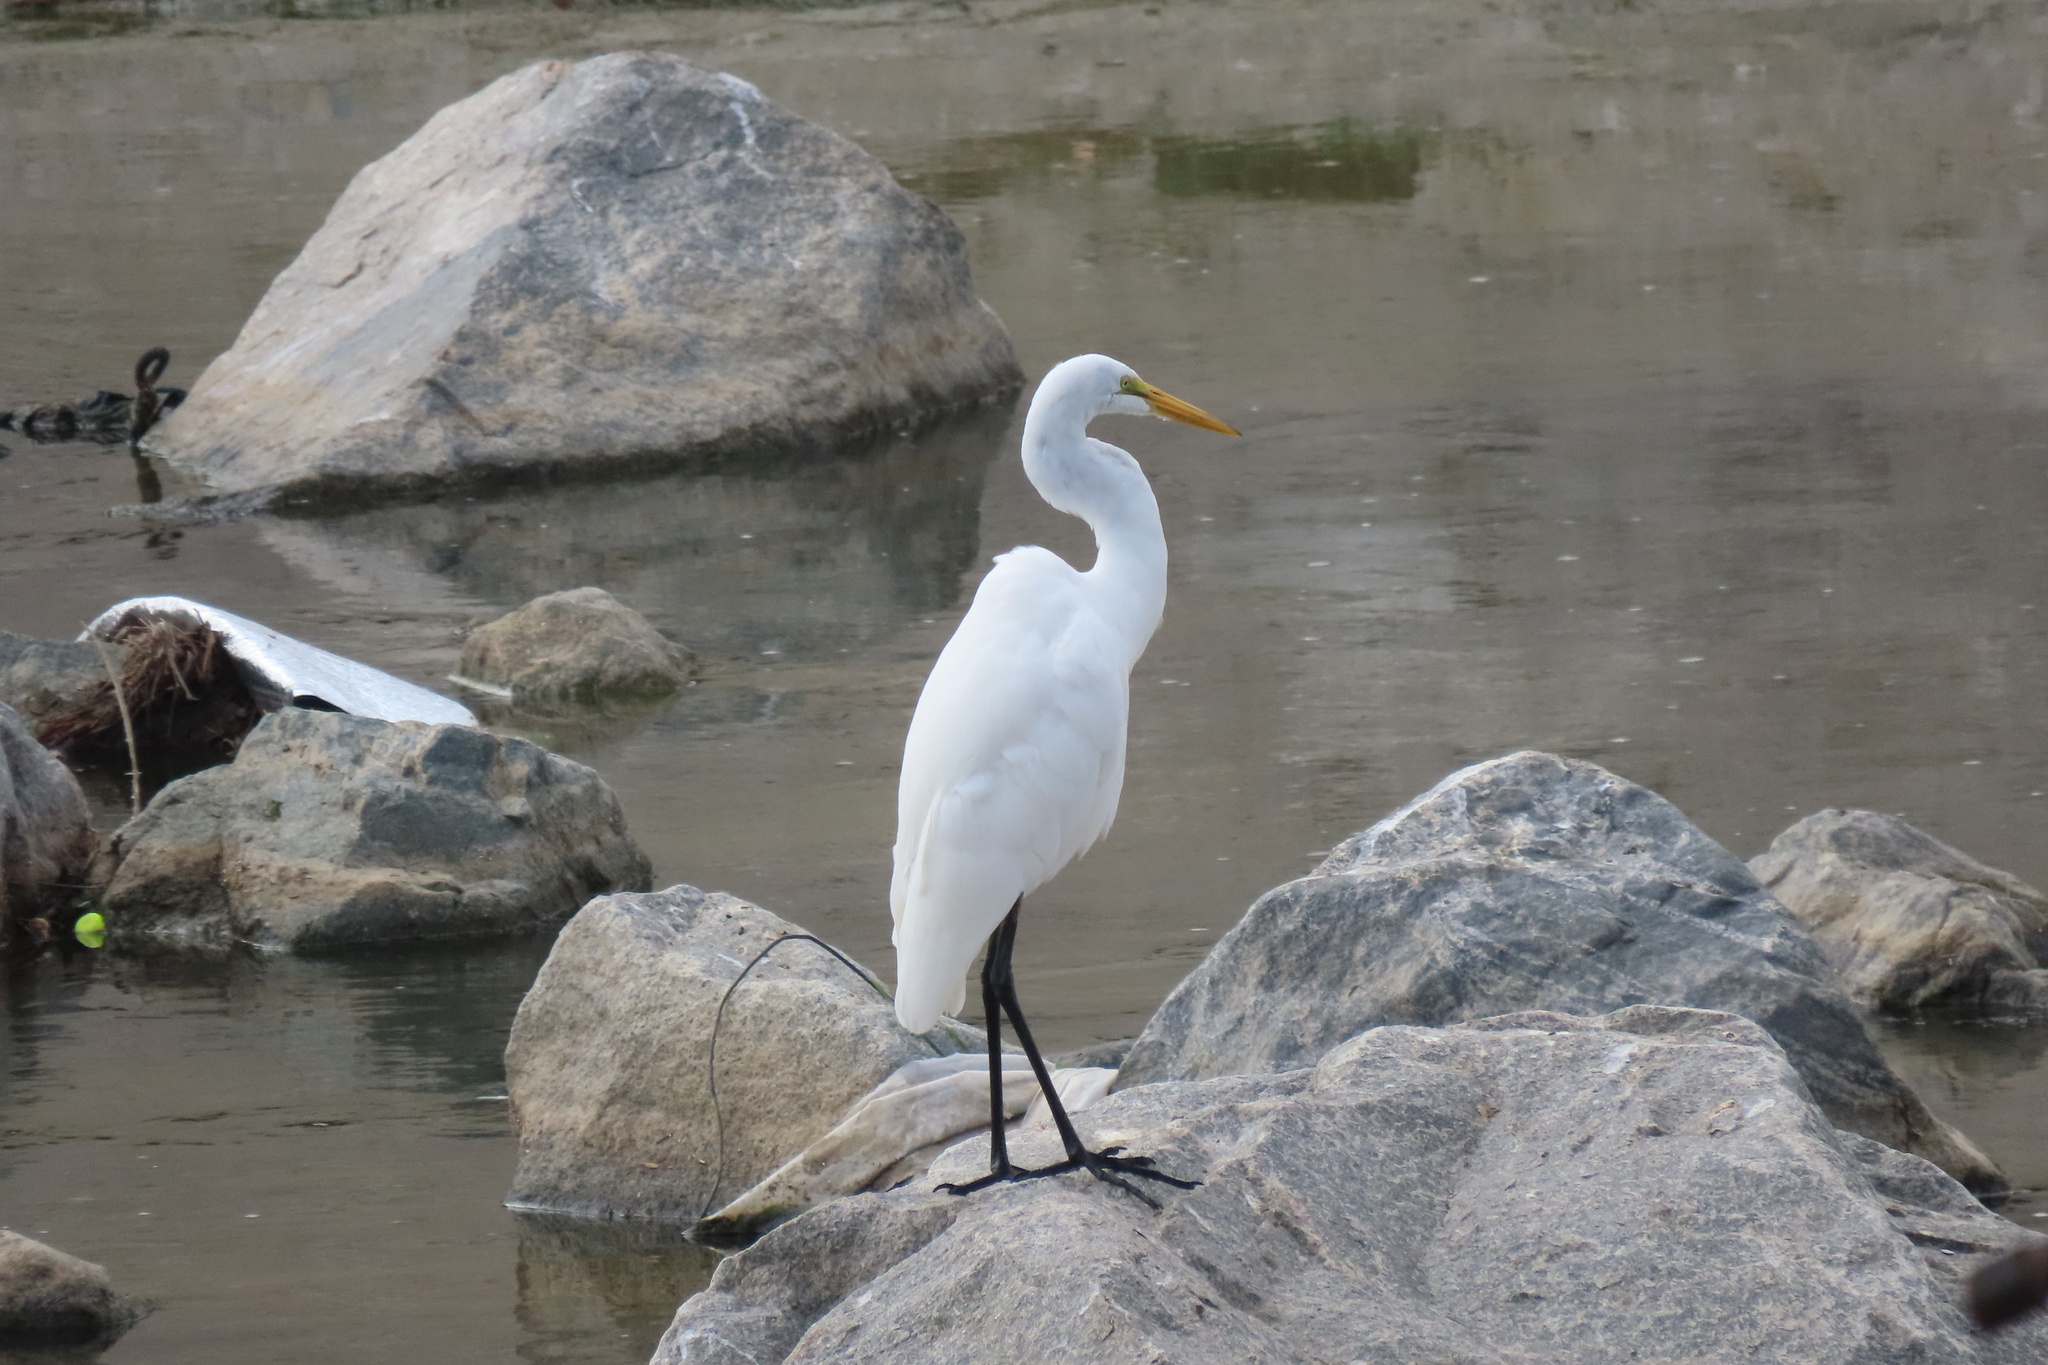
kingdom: Animalia
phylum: Chordata
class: Aves
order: Pelecaniformes
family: Ardeidae
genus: Ardea
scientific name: Ardea alba
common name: Great egret
